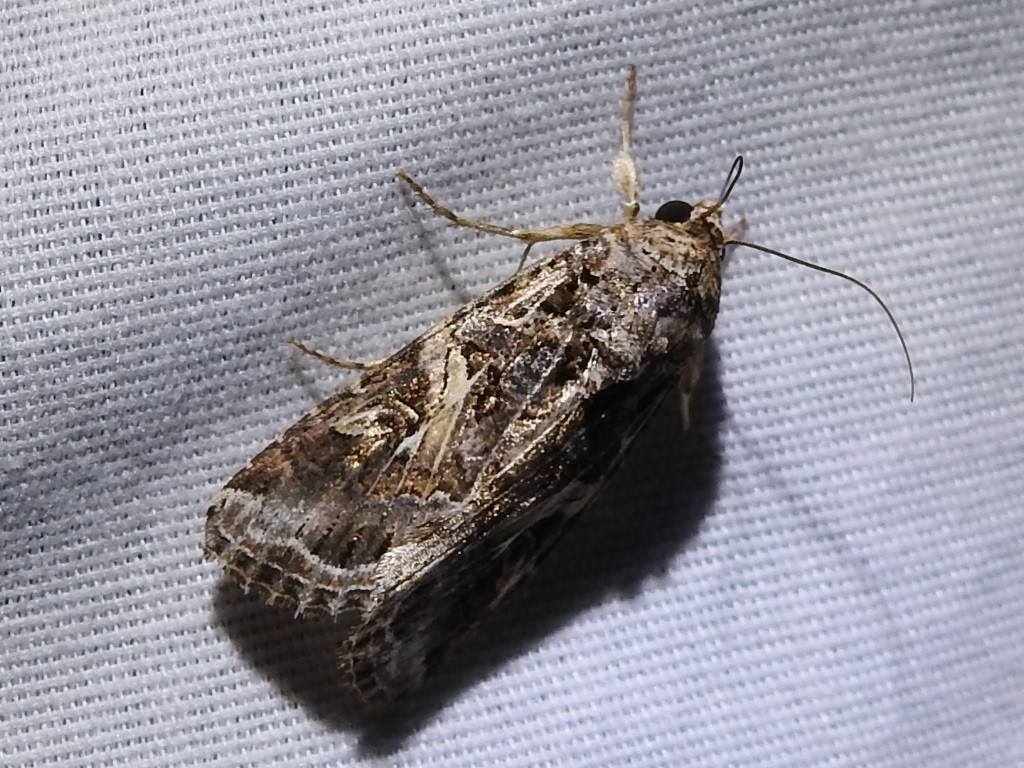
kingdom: Animalia
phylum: Arthropoda
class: Insecta
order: Lepidoptera
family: Noctuidae
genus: Spodoptera
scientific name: Spodoptera ornithogalli
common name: Yellow-striped armyworm
